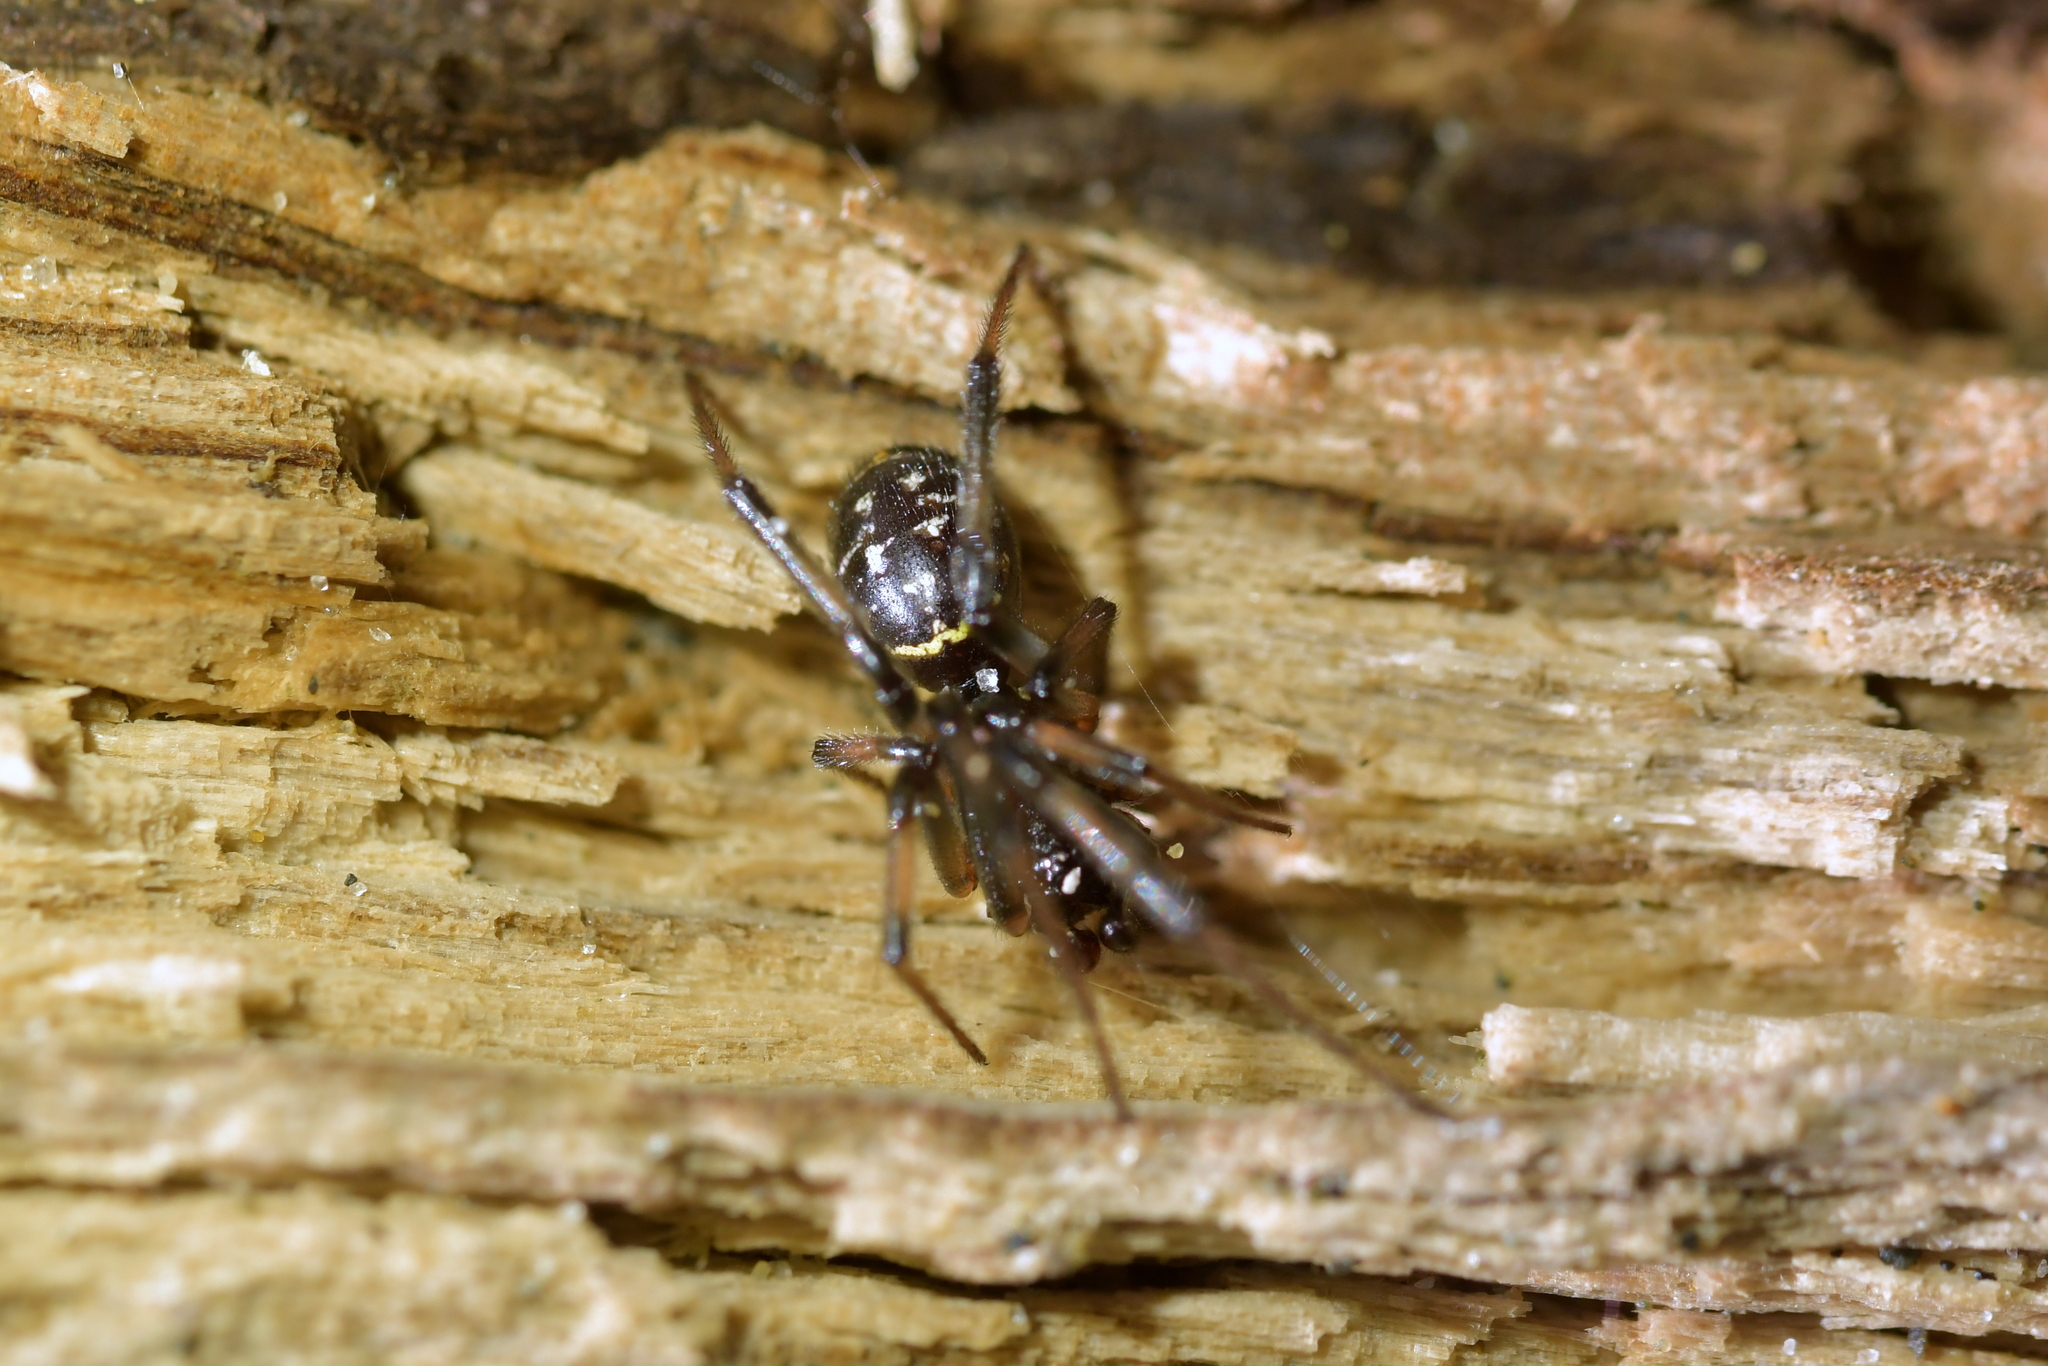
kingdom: Animalia
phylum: Arthropoda
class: Arachnida
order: Araneae
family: Theridiidae
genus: Steatoda
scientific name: Steatoda capensis
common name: Cobweb weaver
